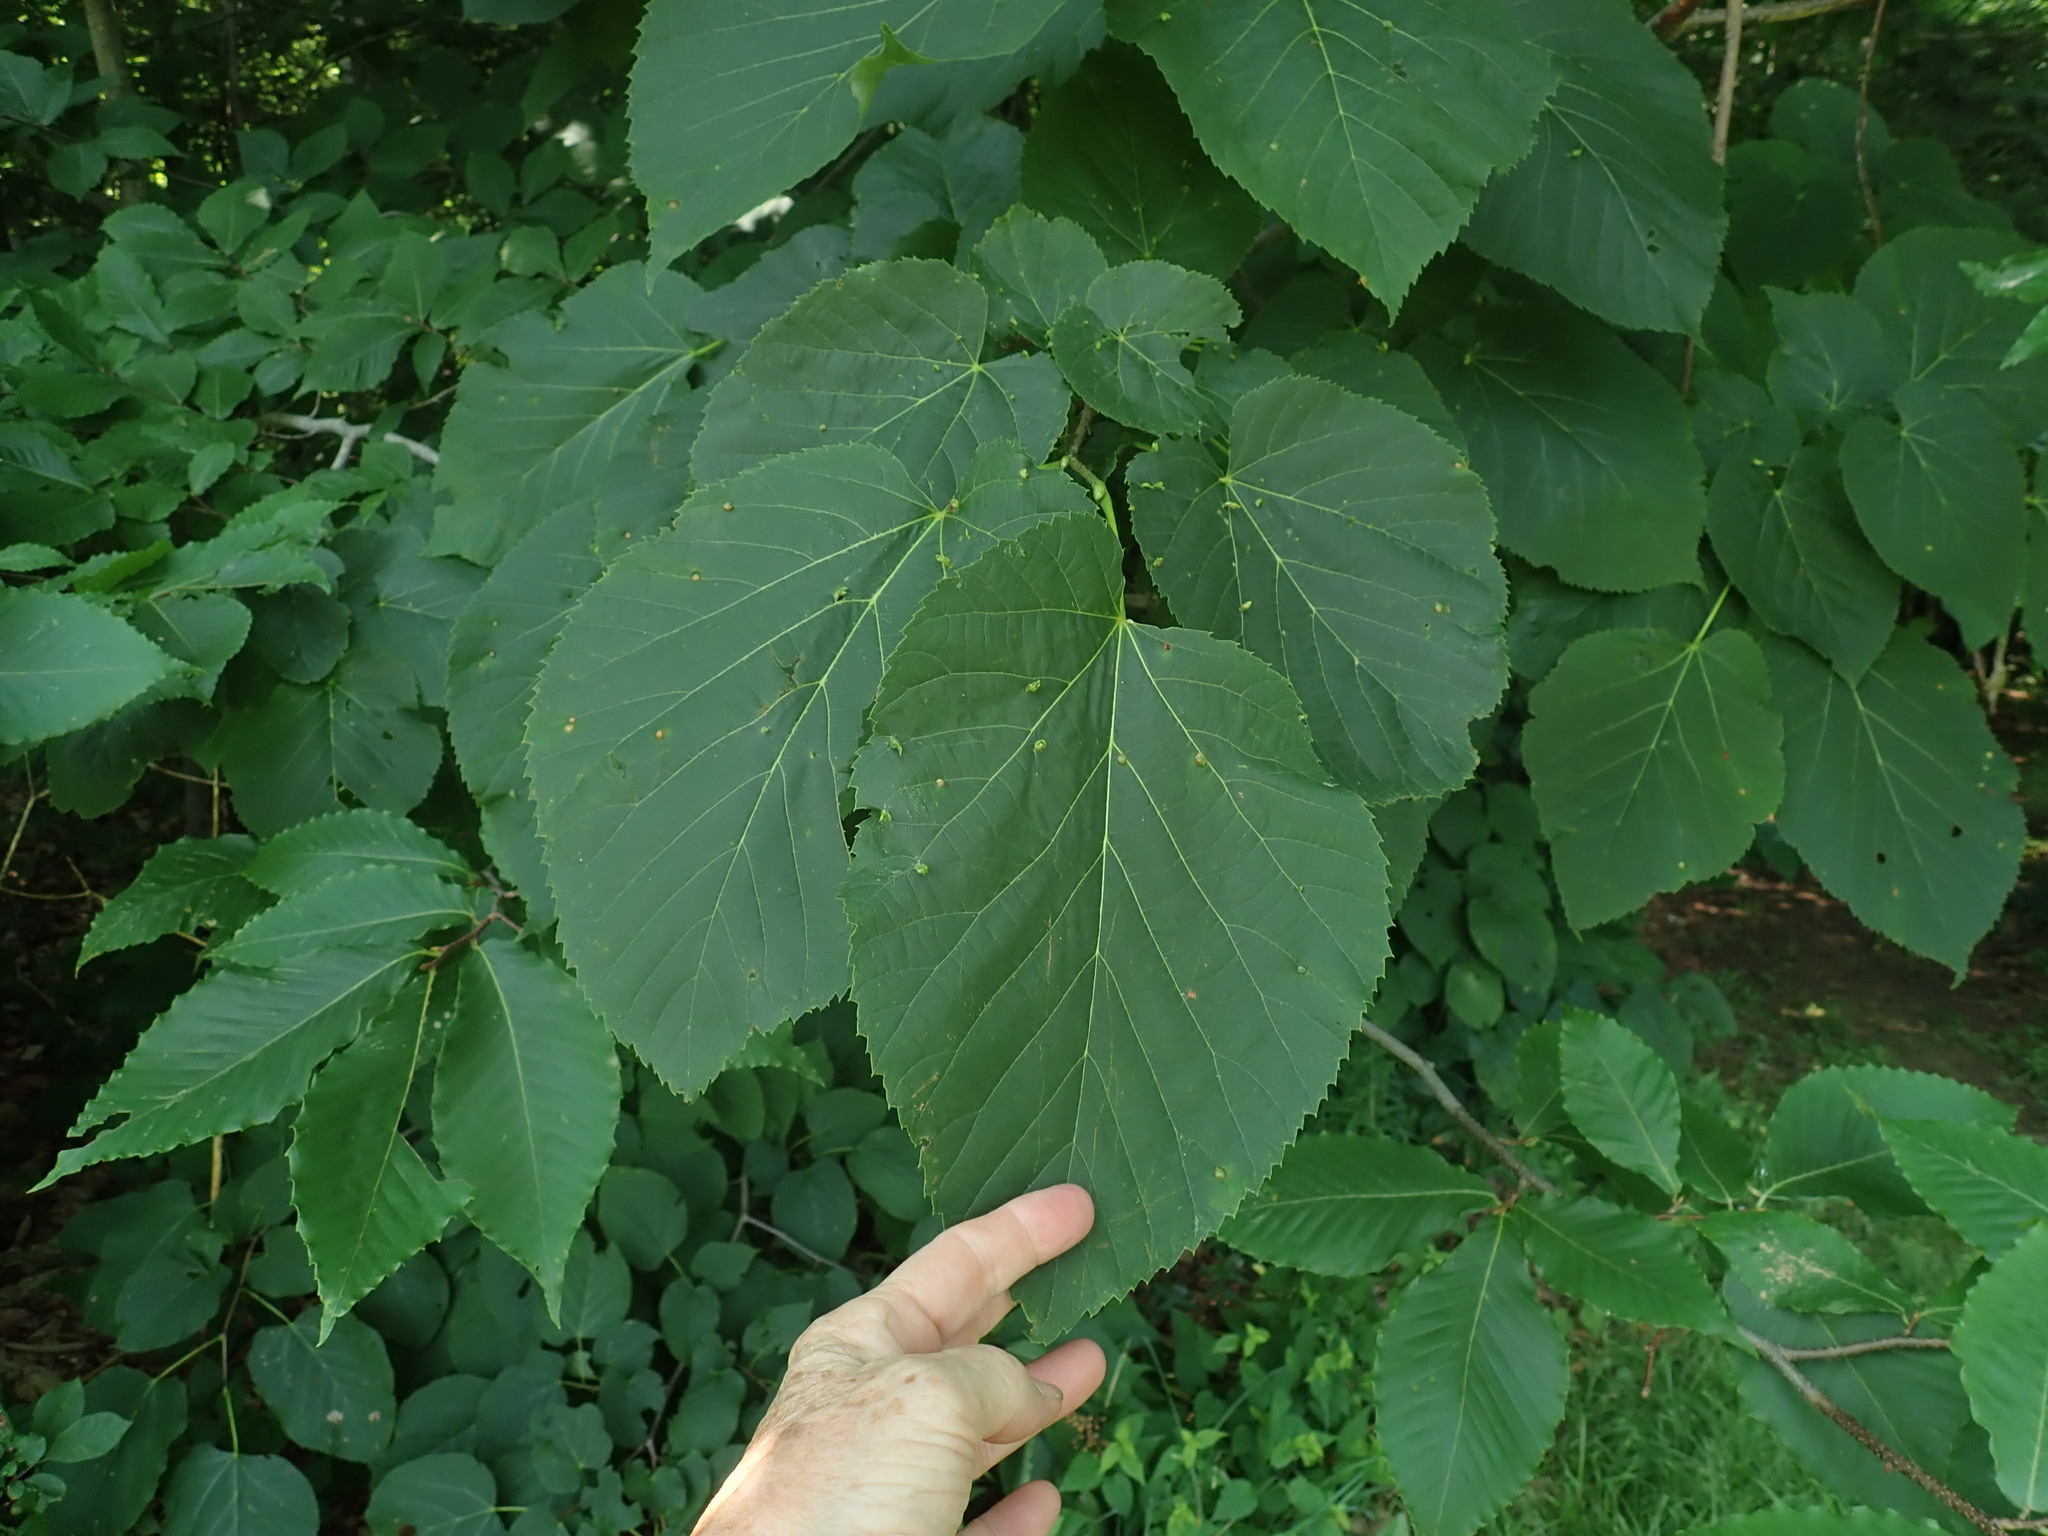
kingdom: Plantae
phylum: Tracheophyta
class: Magnoliopsida
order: Malvales
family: Malvaceae
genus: Tilia
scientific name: Tilia americana
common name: Basswood
